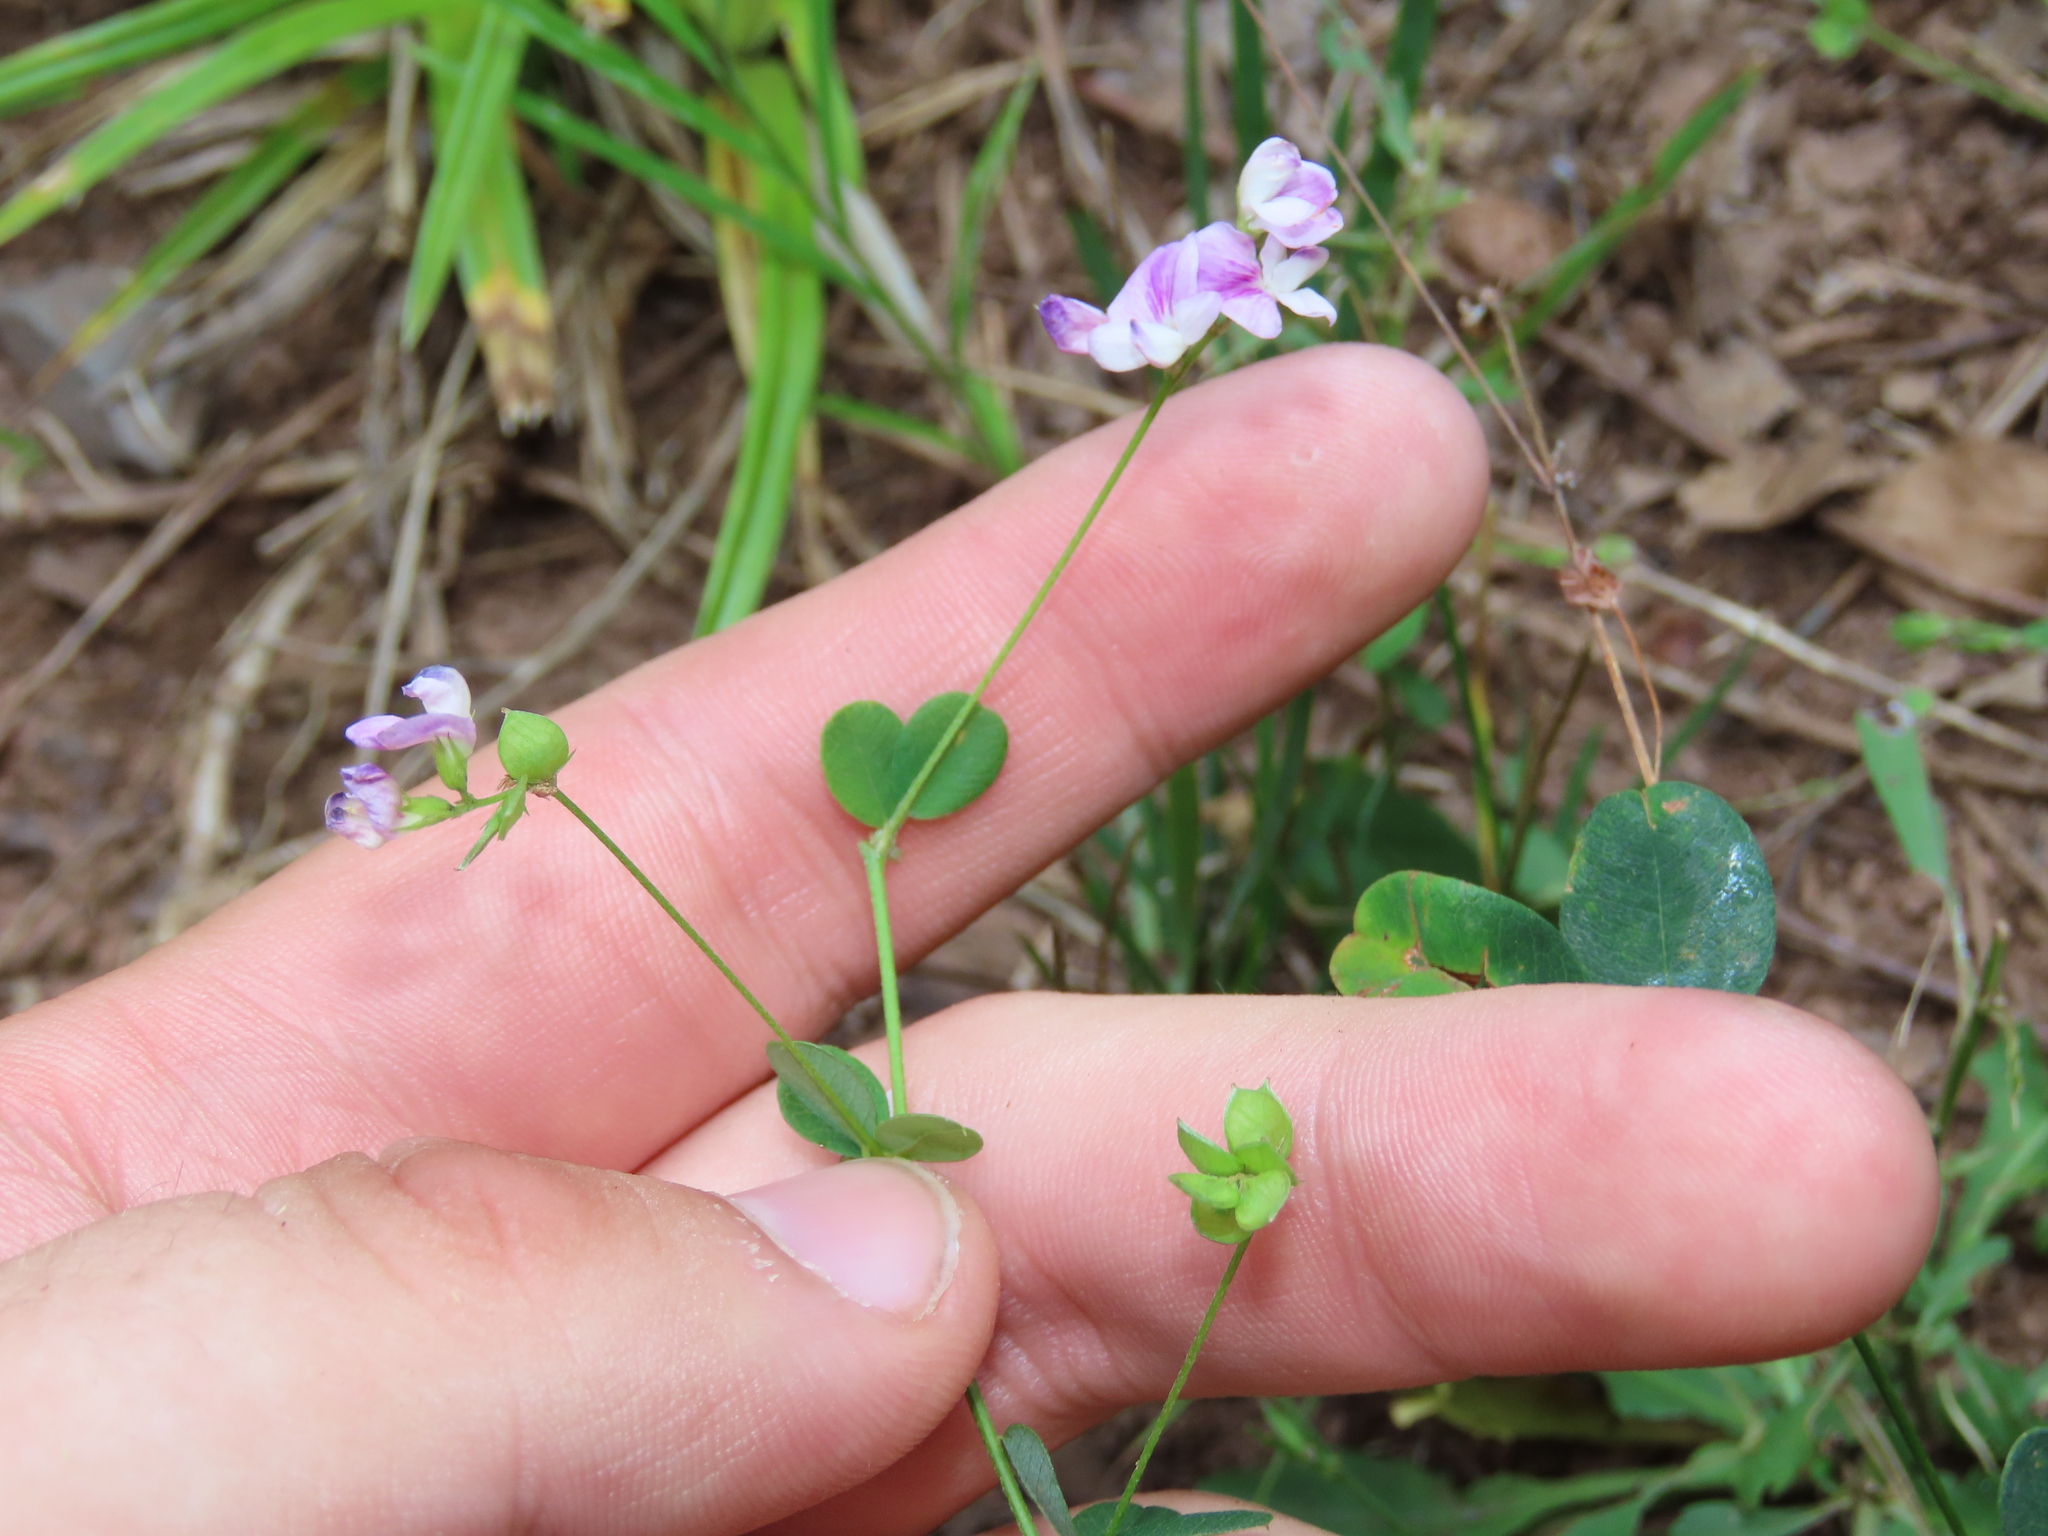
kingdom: Plantae
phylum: Tracheophyta
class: Magnoliopsida
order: Fabales
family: Fabaceae
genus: Lespedeza
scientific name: Lespedeza repens
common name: Creeping bush-clover
